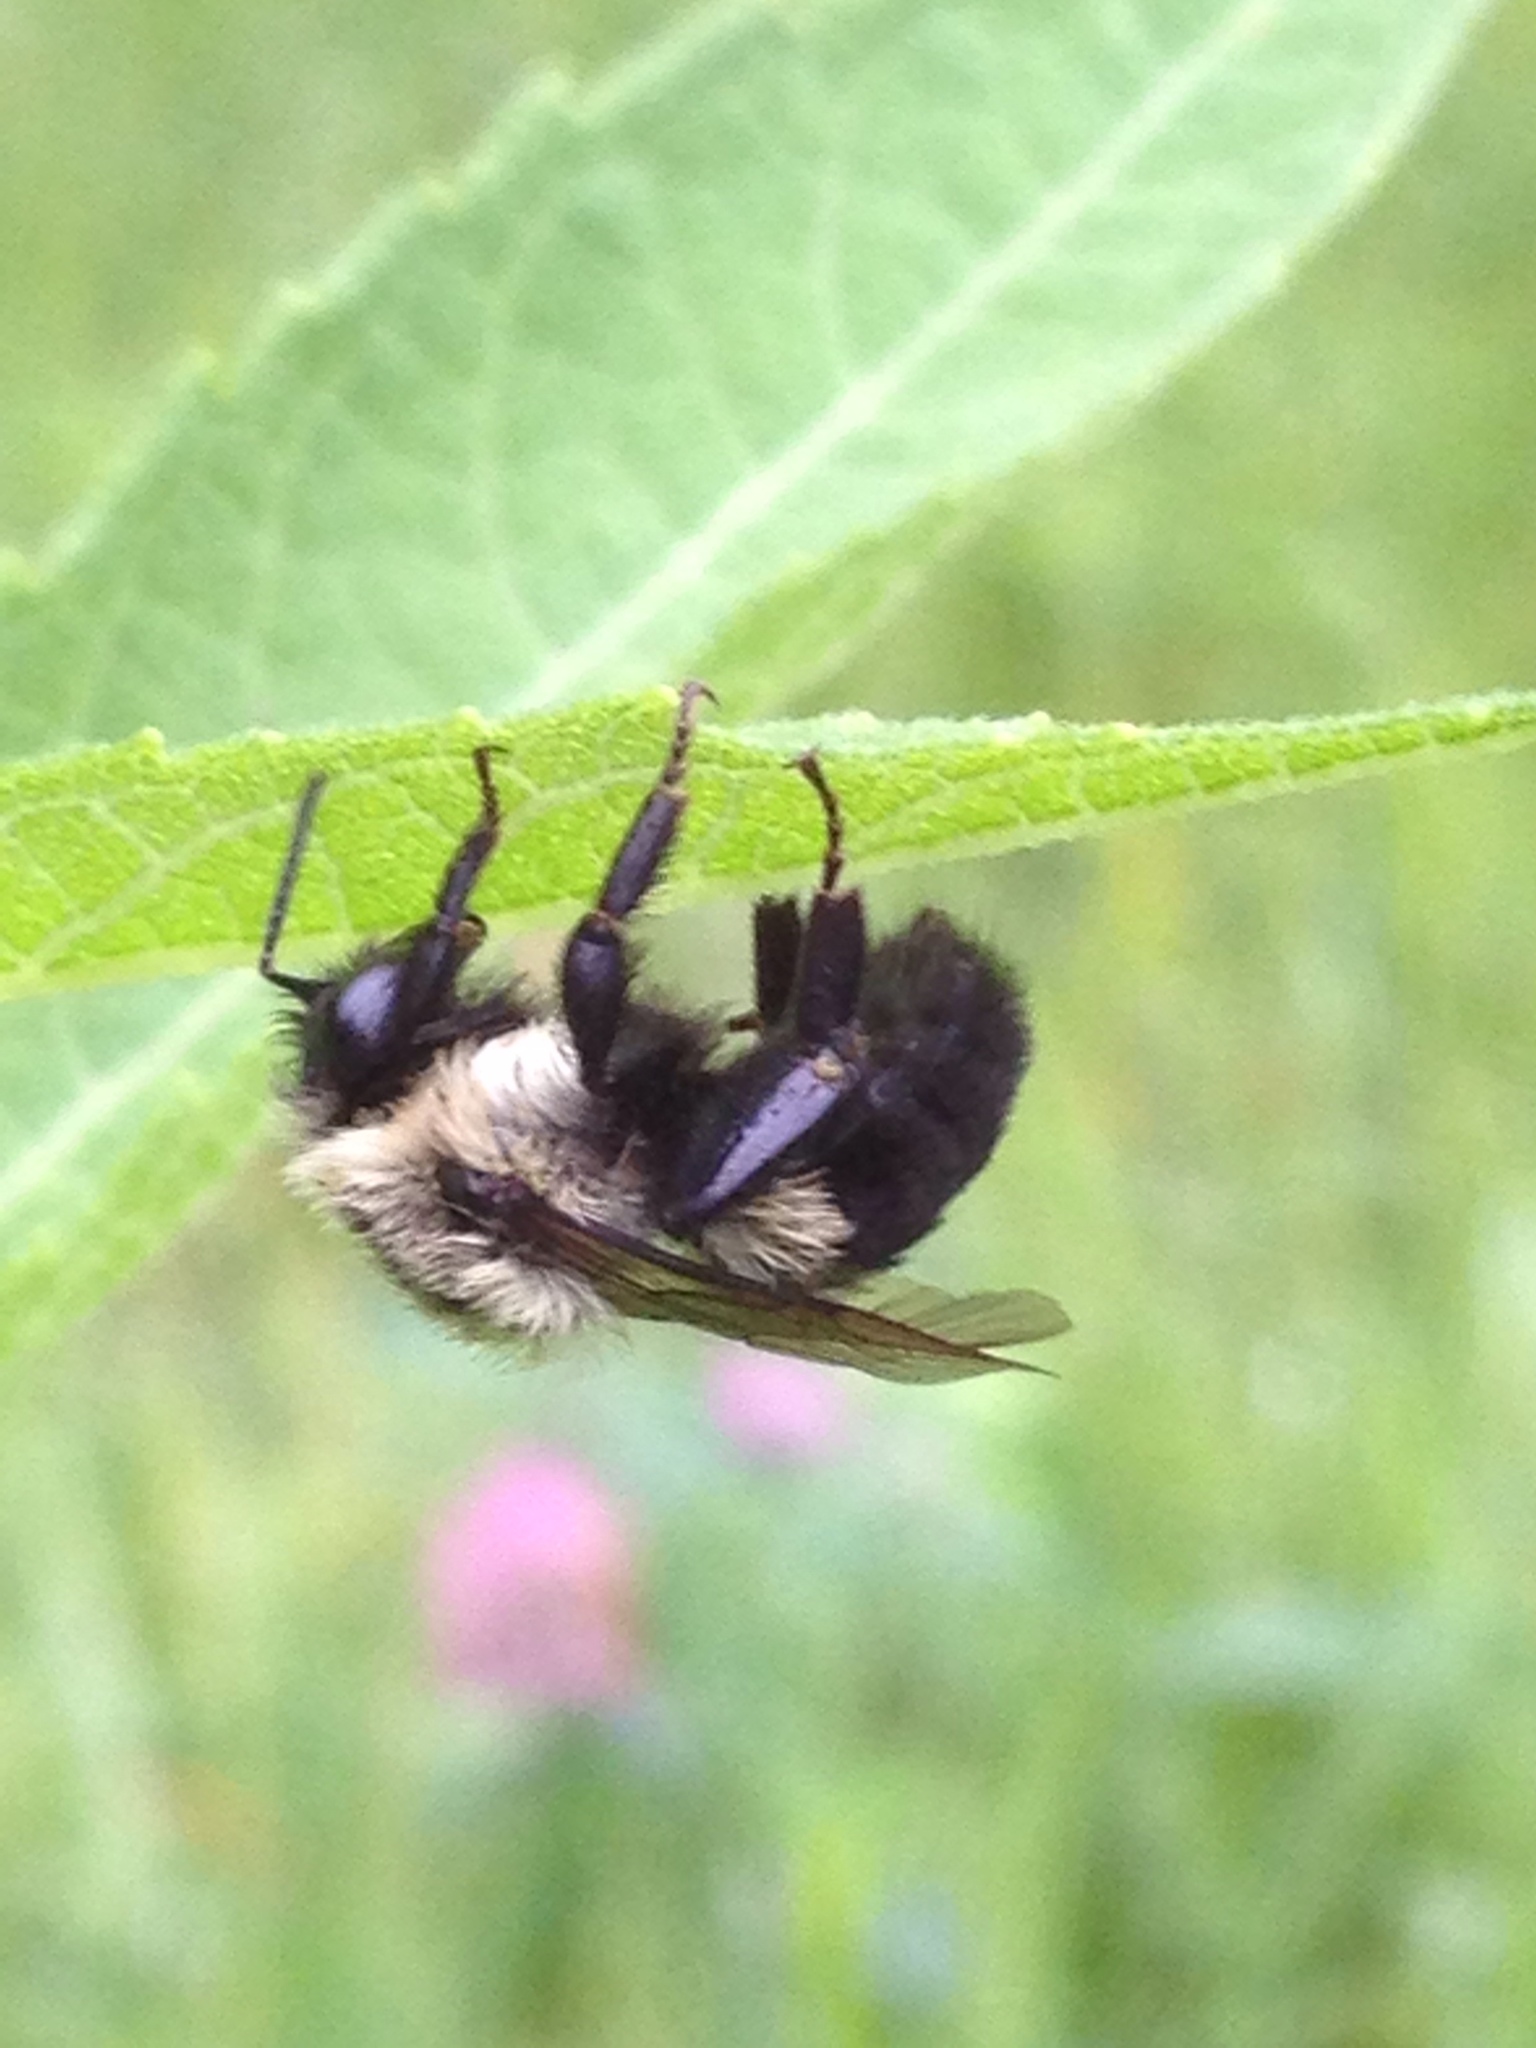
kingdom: Animalia
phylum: Arthropoda
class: Insecta
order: Hymenoptera
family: Apidae
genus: Bombus
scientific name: Bombus impatiens
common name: Common eastern bumble bee
